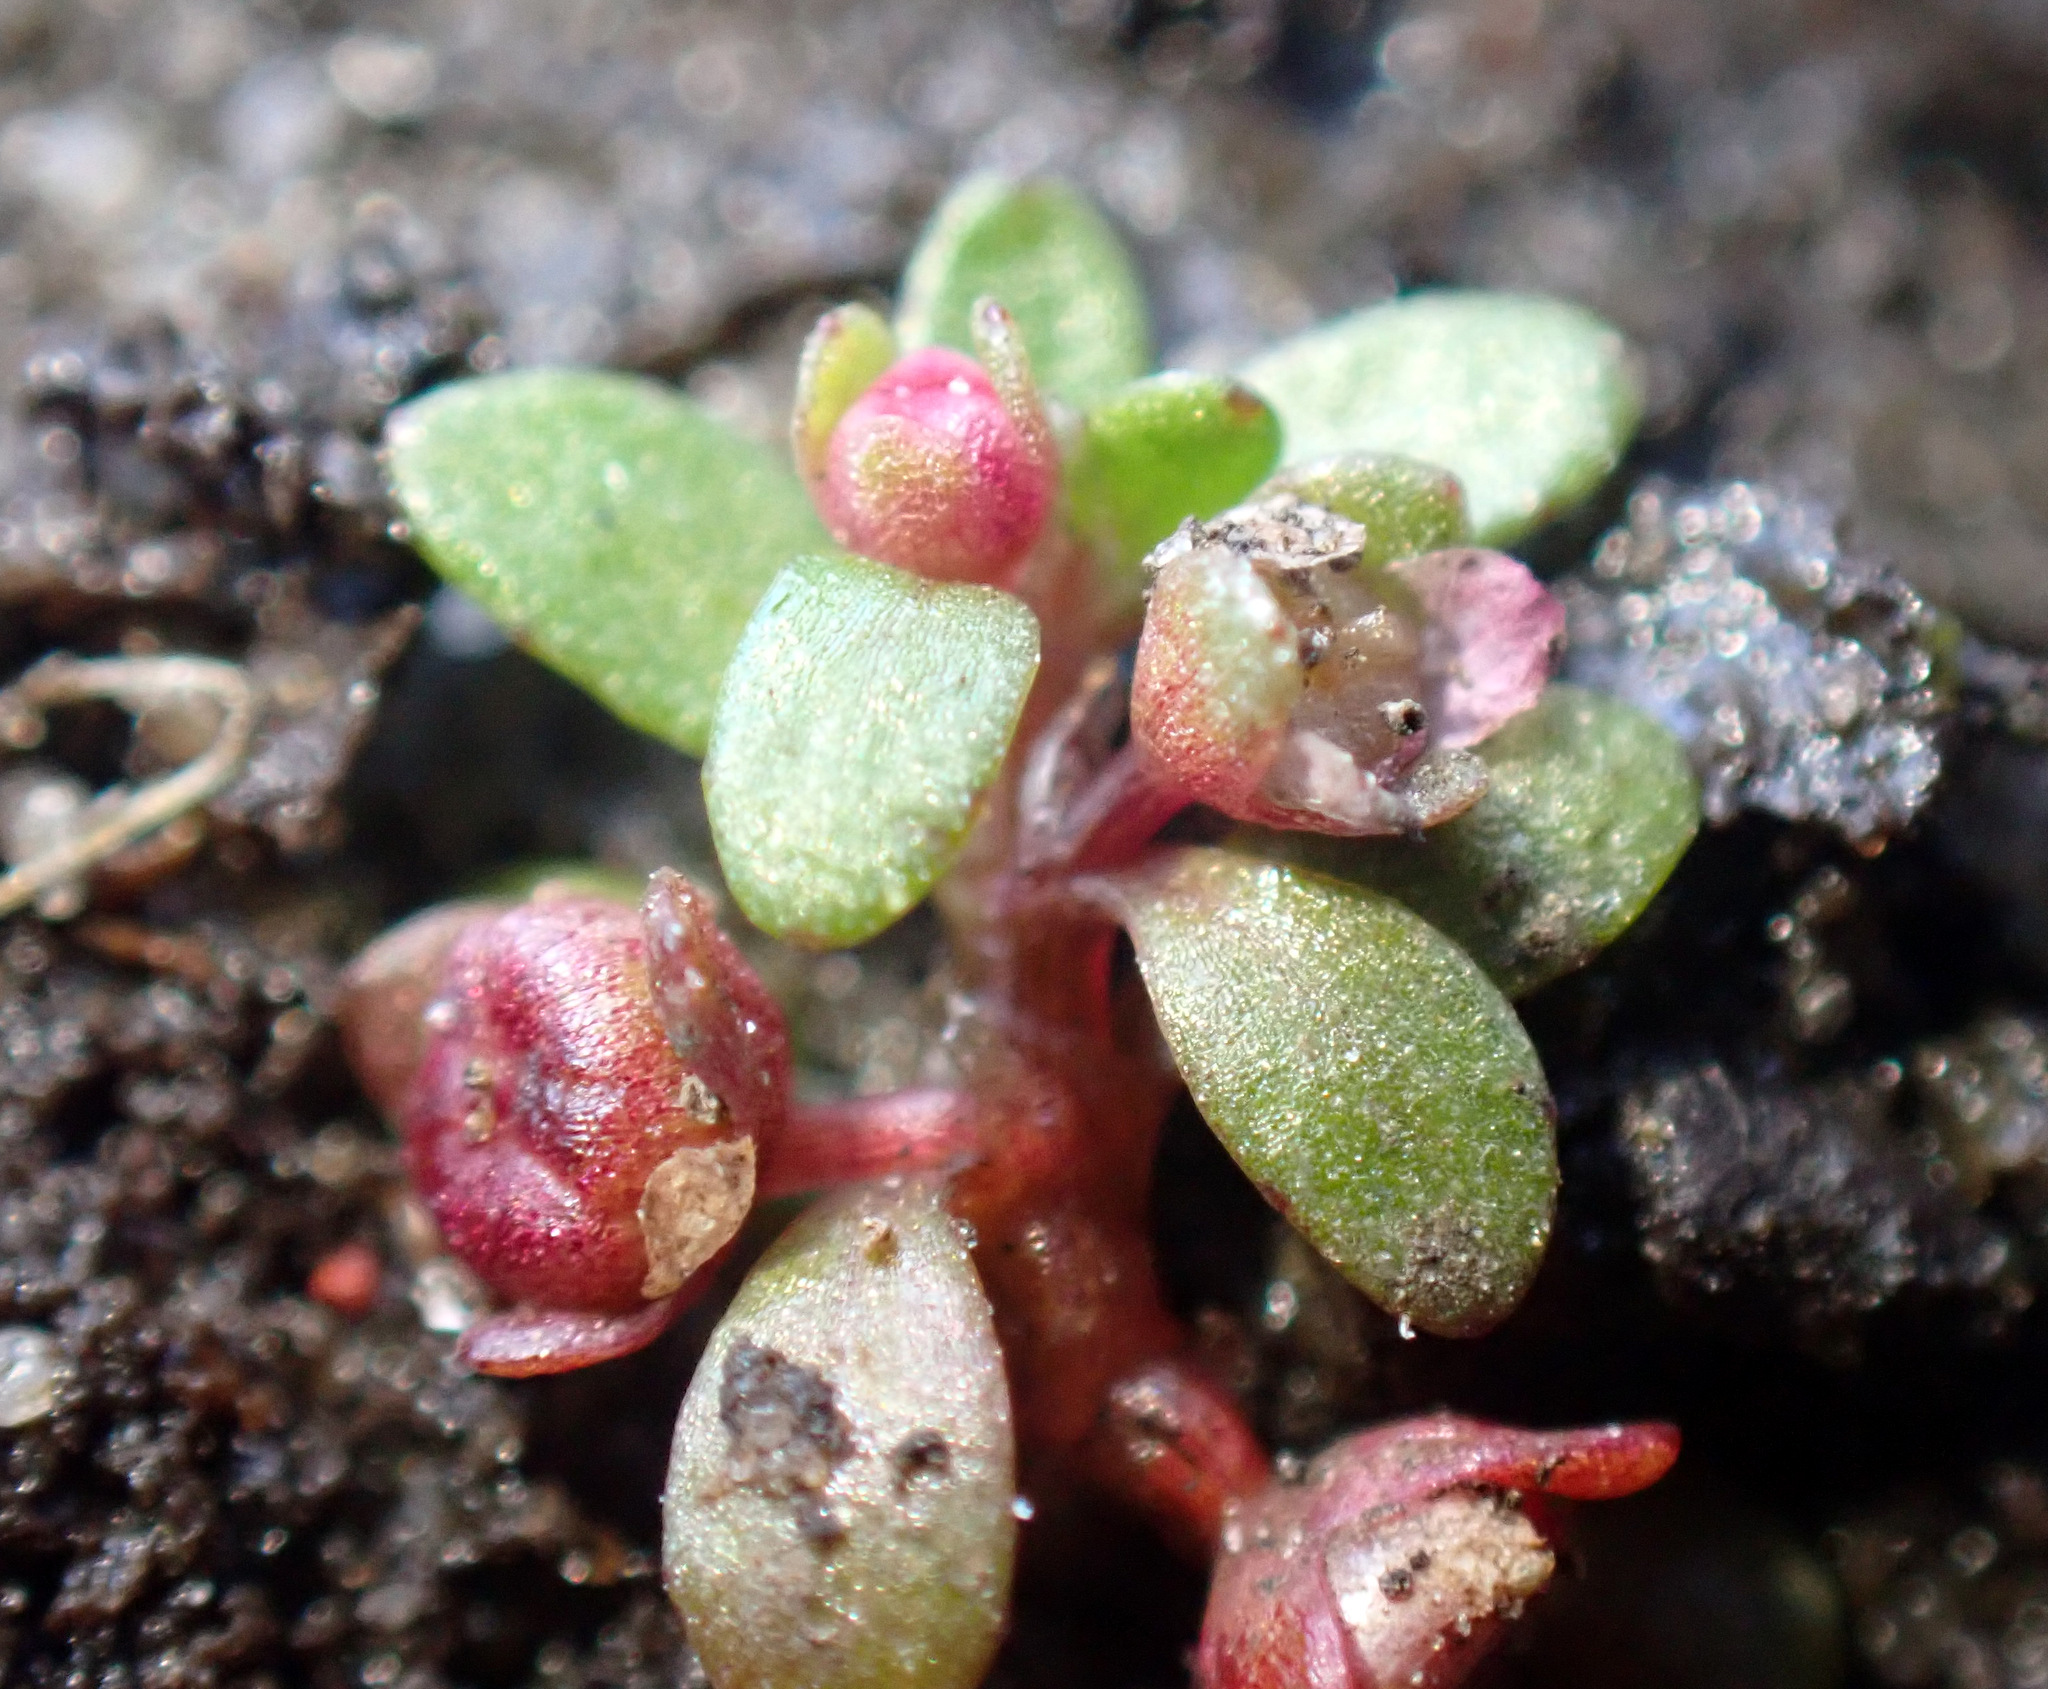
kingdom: Plantae
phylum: Tracheophyta
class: Magnoliopsida
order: Malpighiales
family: Elatinaceae
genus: Elatine
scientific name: Elatine hexandra
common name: Six-stamened waterwort
